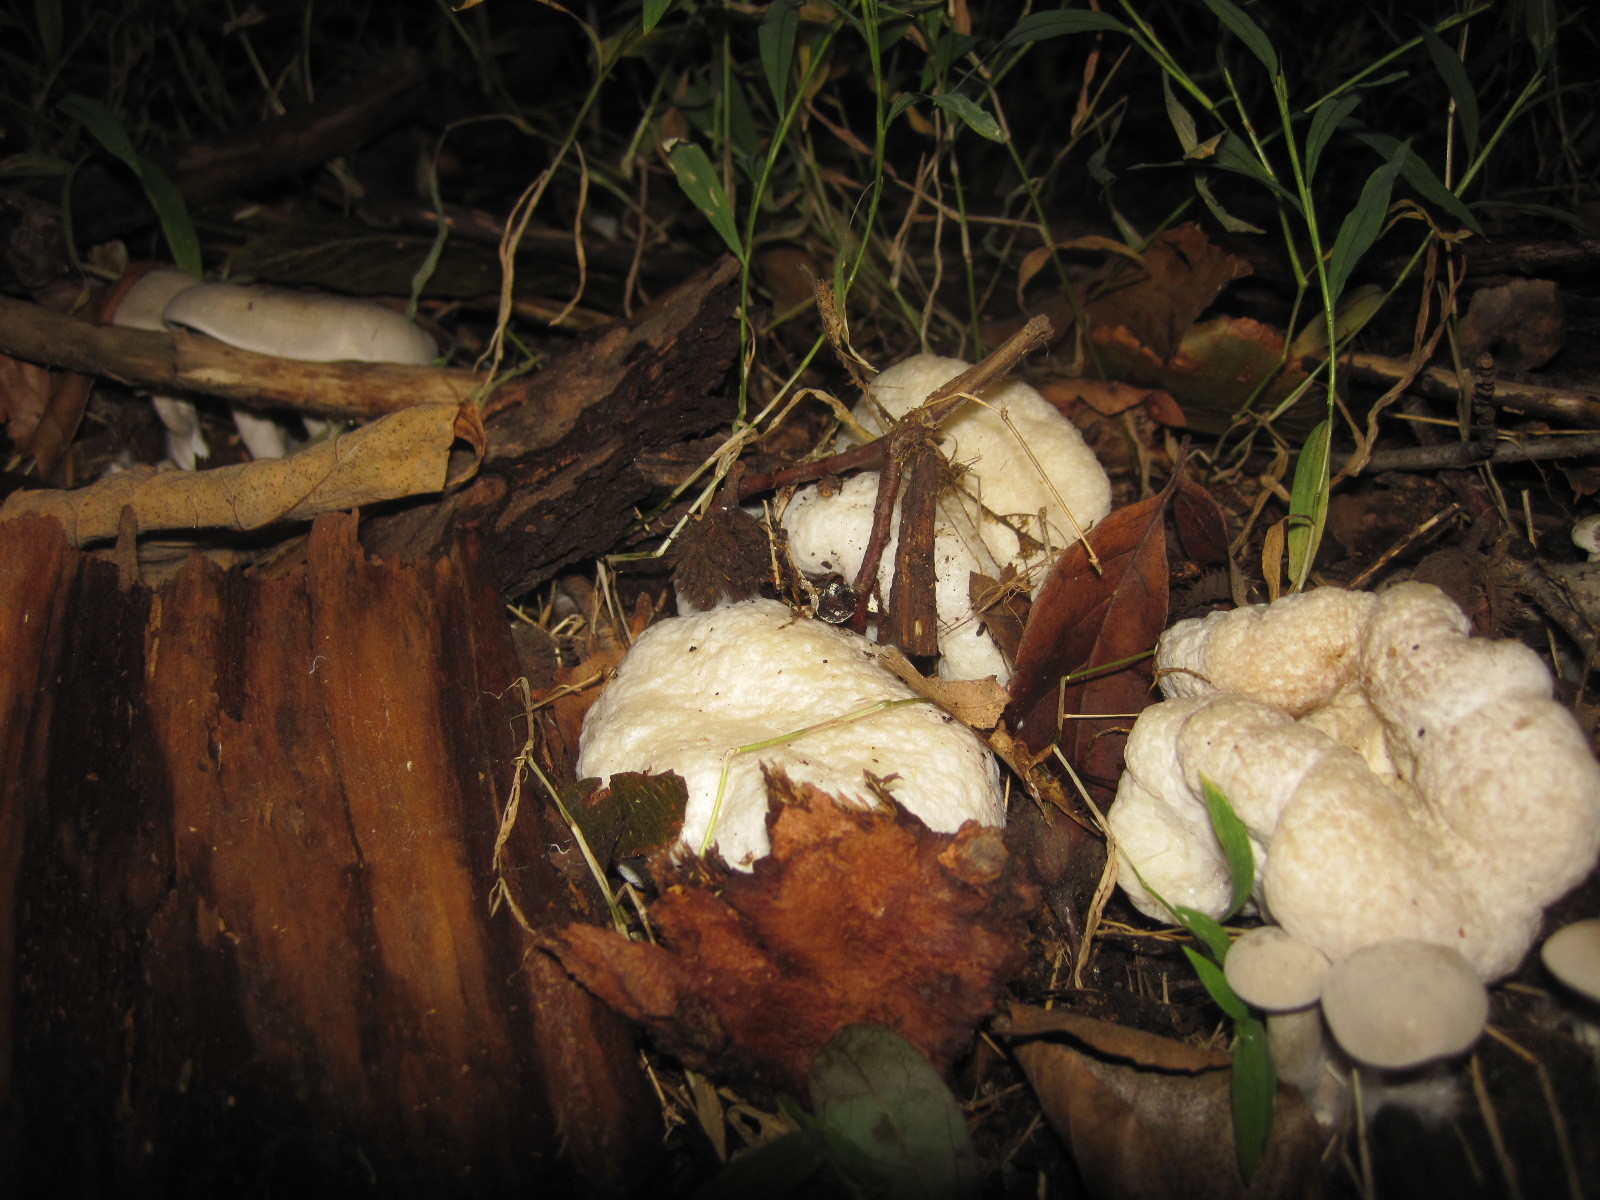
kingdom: Fungi
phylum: Basidiomycota
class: Agaricomycetes
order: Agaricales
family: Entolomataceae
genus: Entoloma
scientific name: Entoloma abortivum
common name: Aborted entoloma
